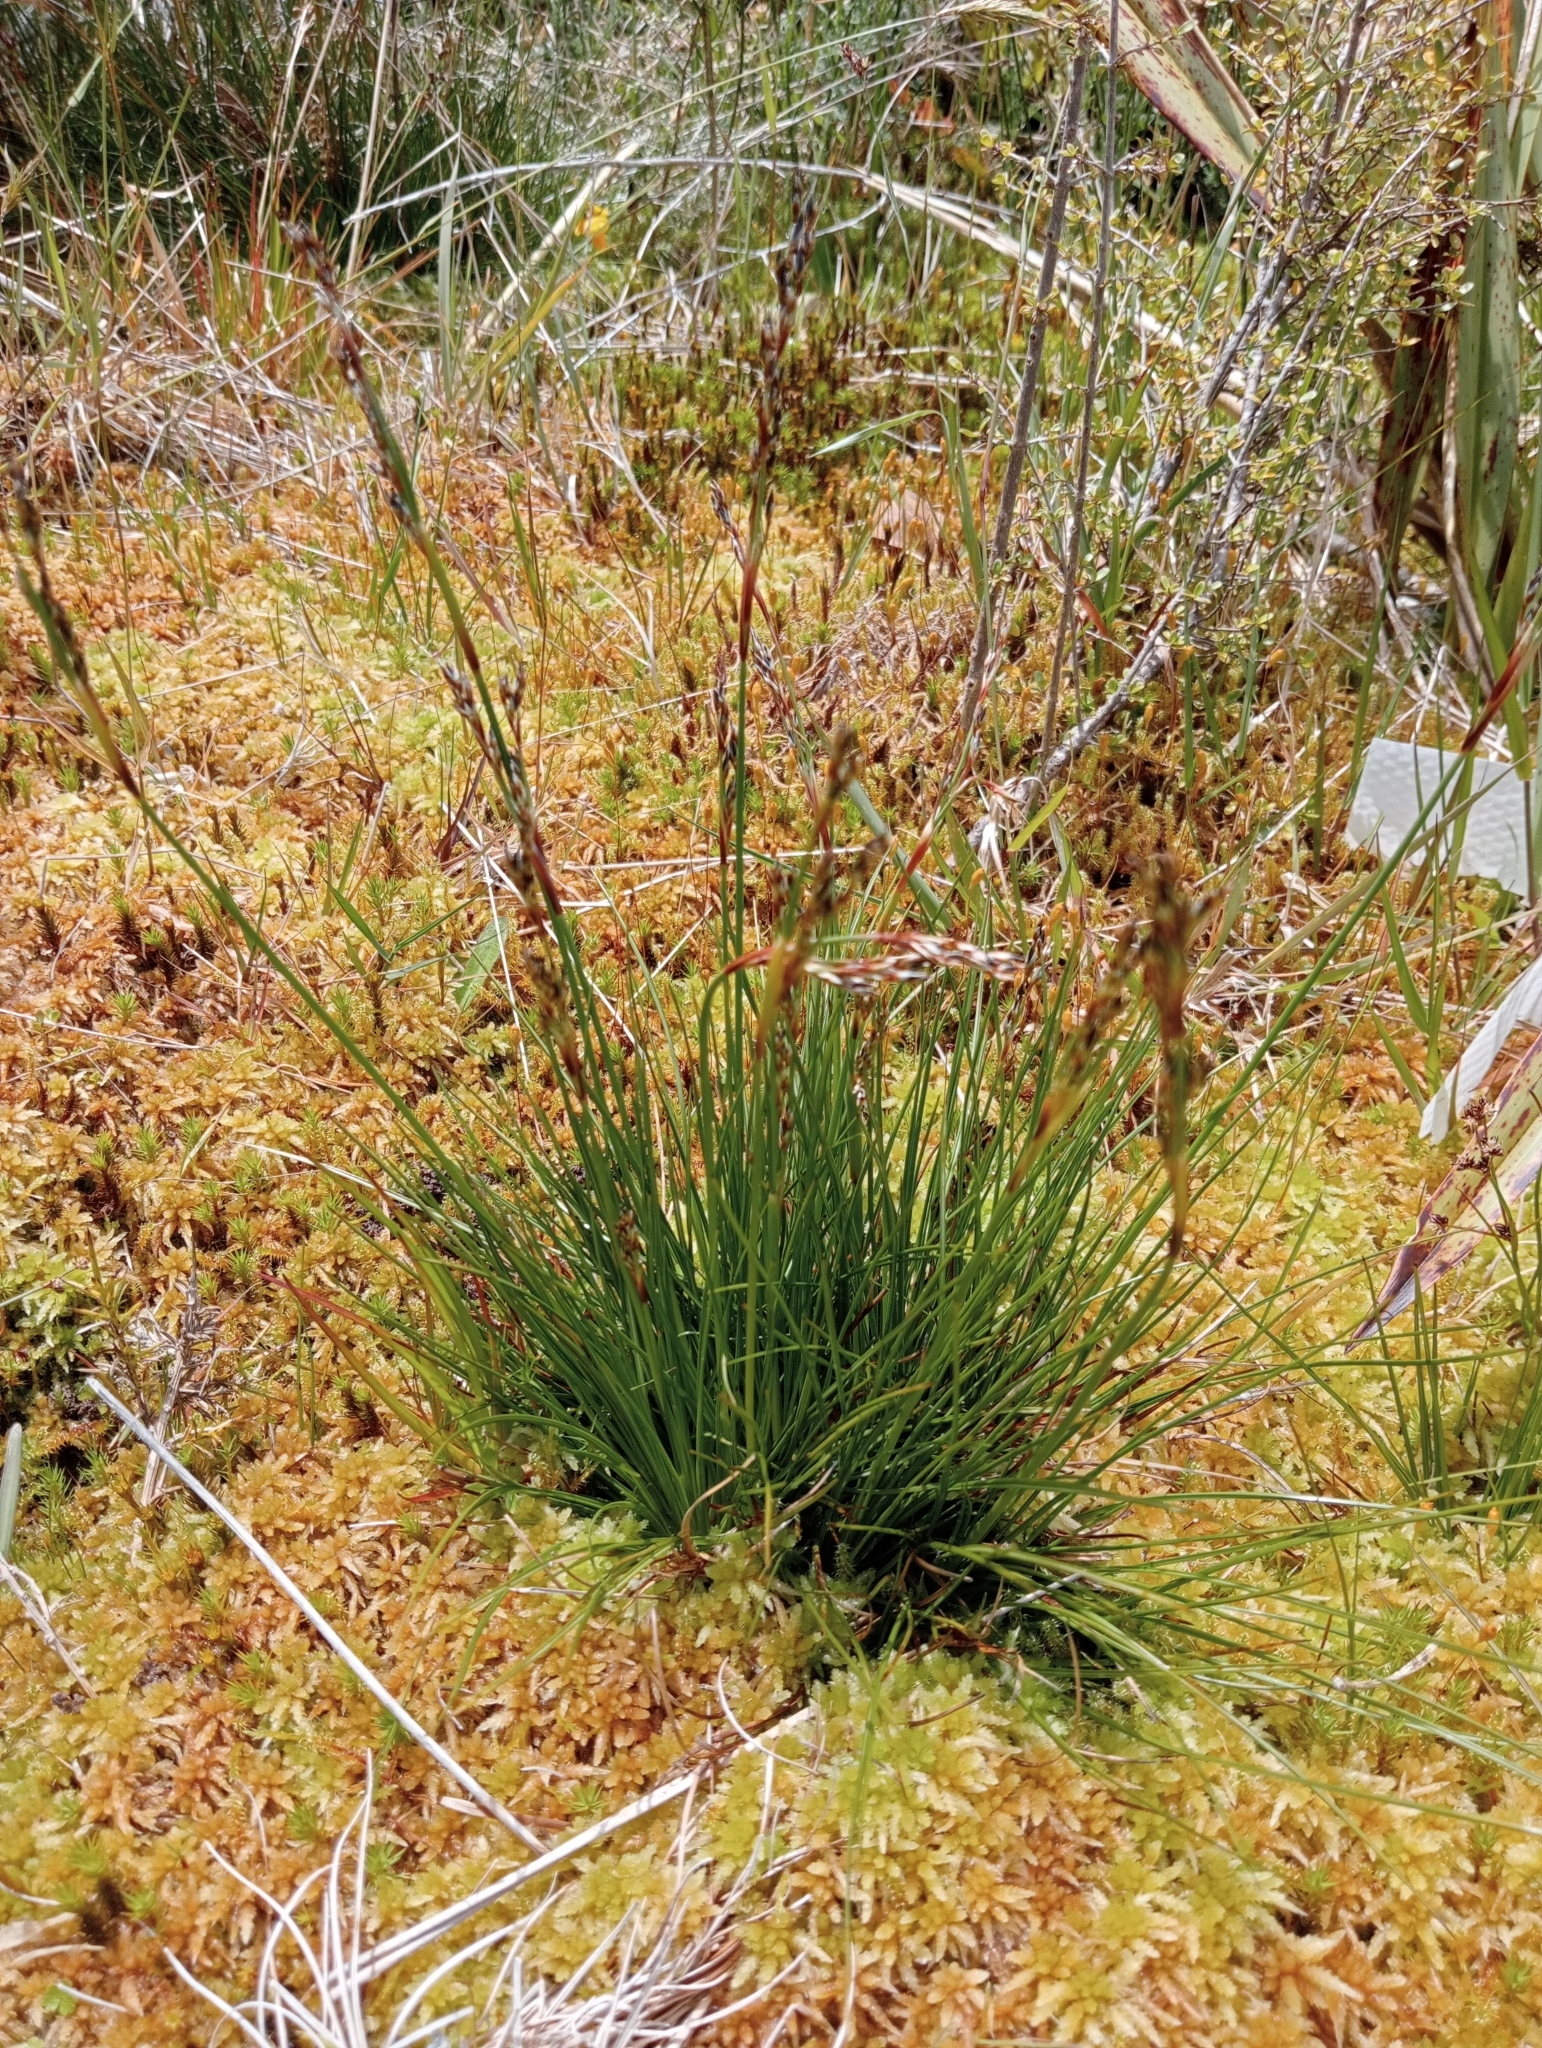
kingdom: Plantae
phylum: Tracheophyta
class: Liliopsida
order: Poales
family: Juncaceae
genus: Juncus
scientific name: Juncus squarrosus
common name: Heath rush
